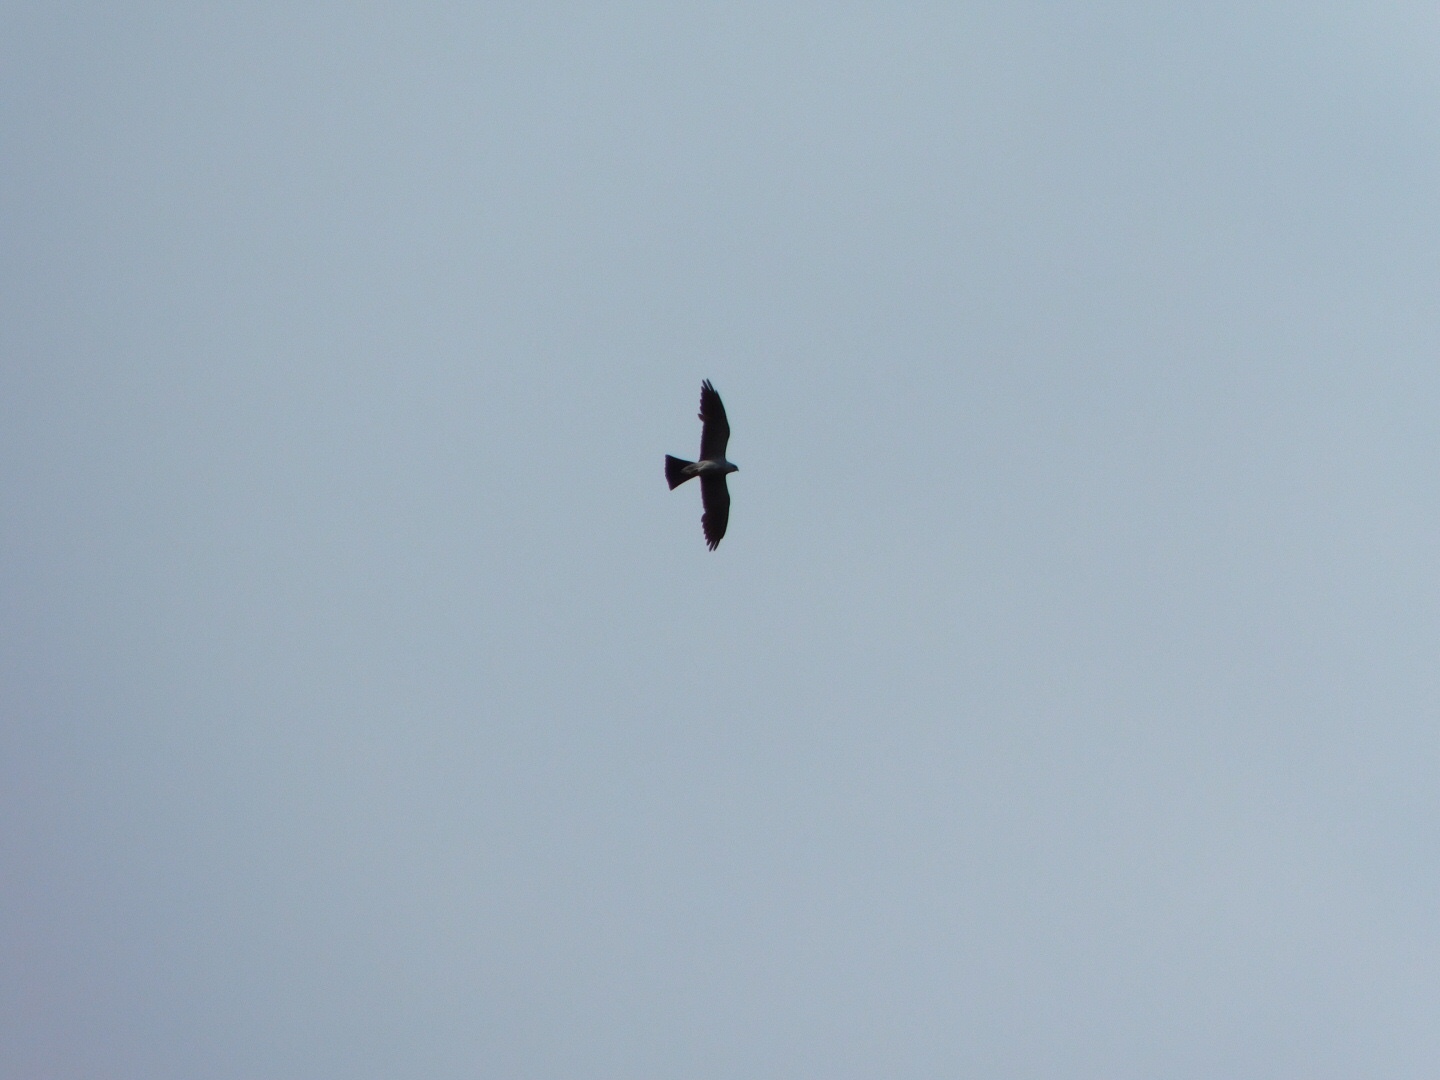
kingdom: Animalia
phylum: Chordata
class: Aves
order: Accipitriformes
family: Accipitridae
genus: Ictinia
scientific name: Ictinia mississippiensis
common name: Mississippi kite
